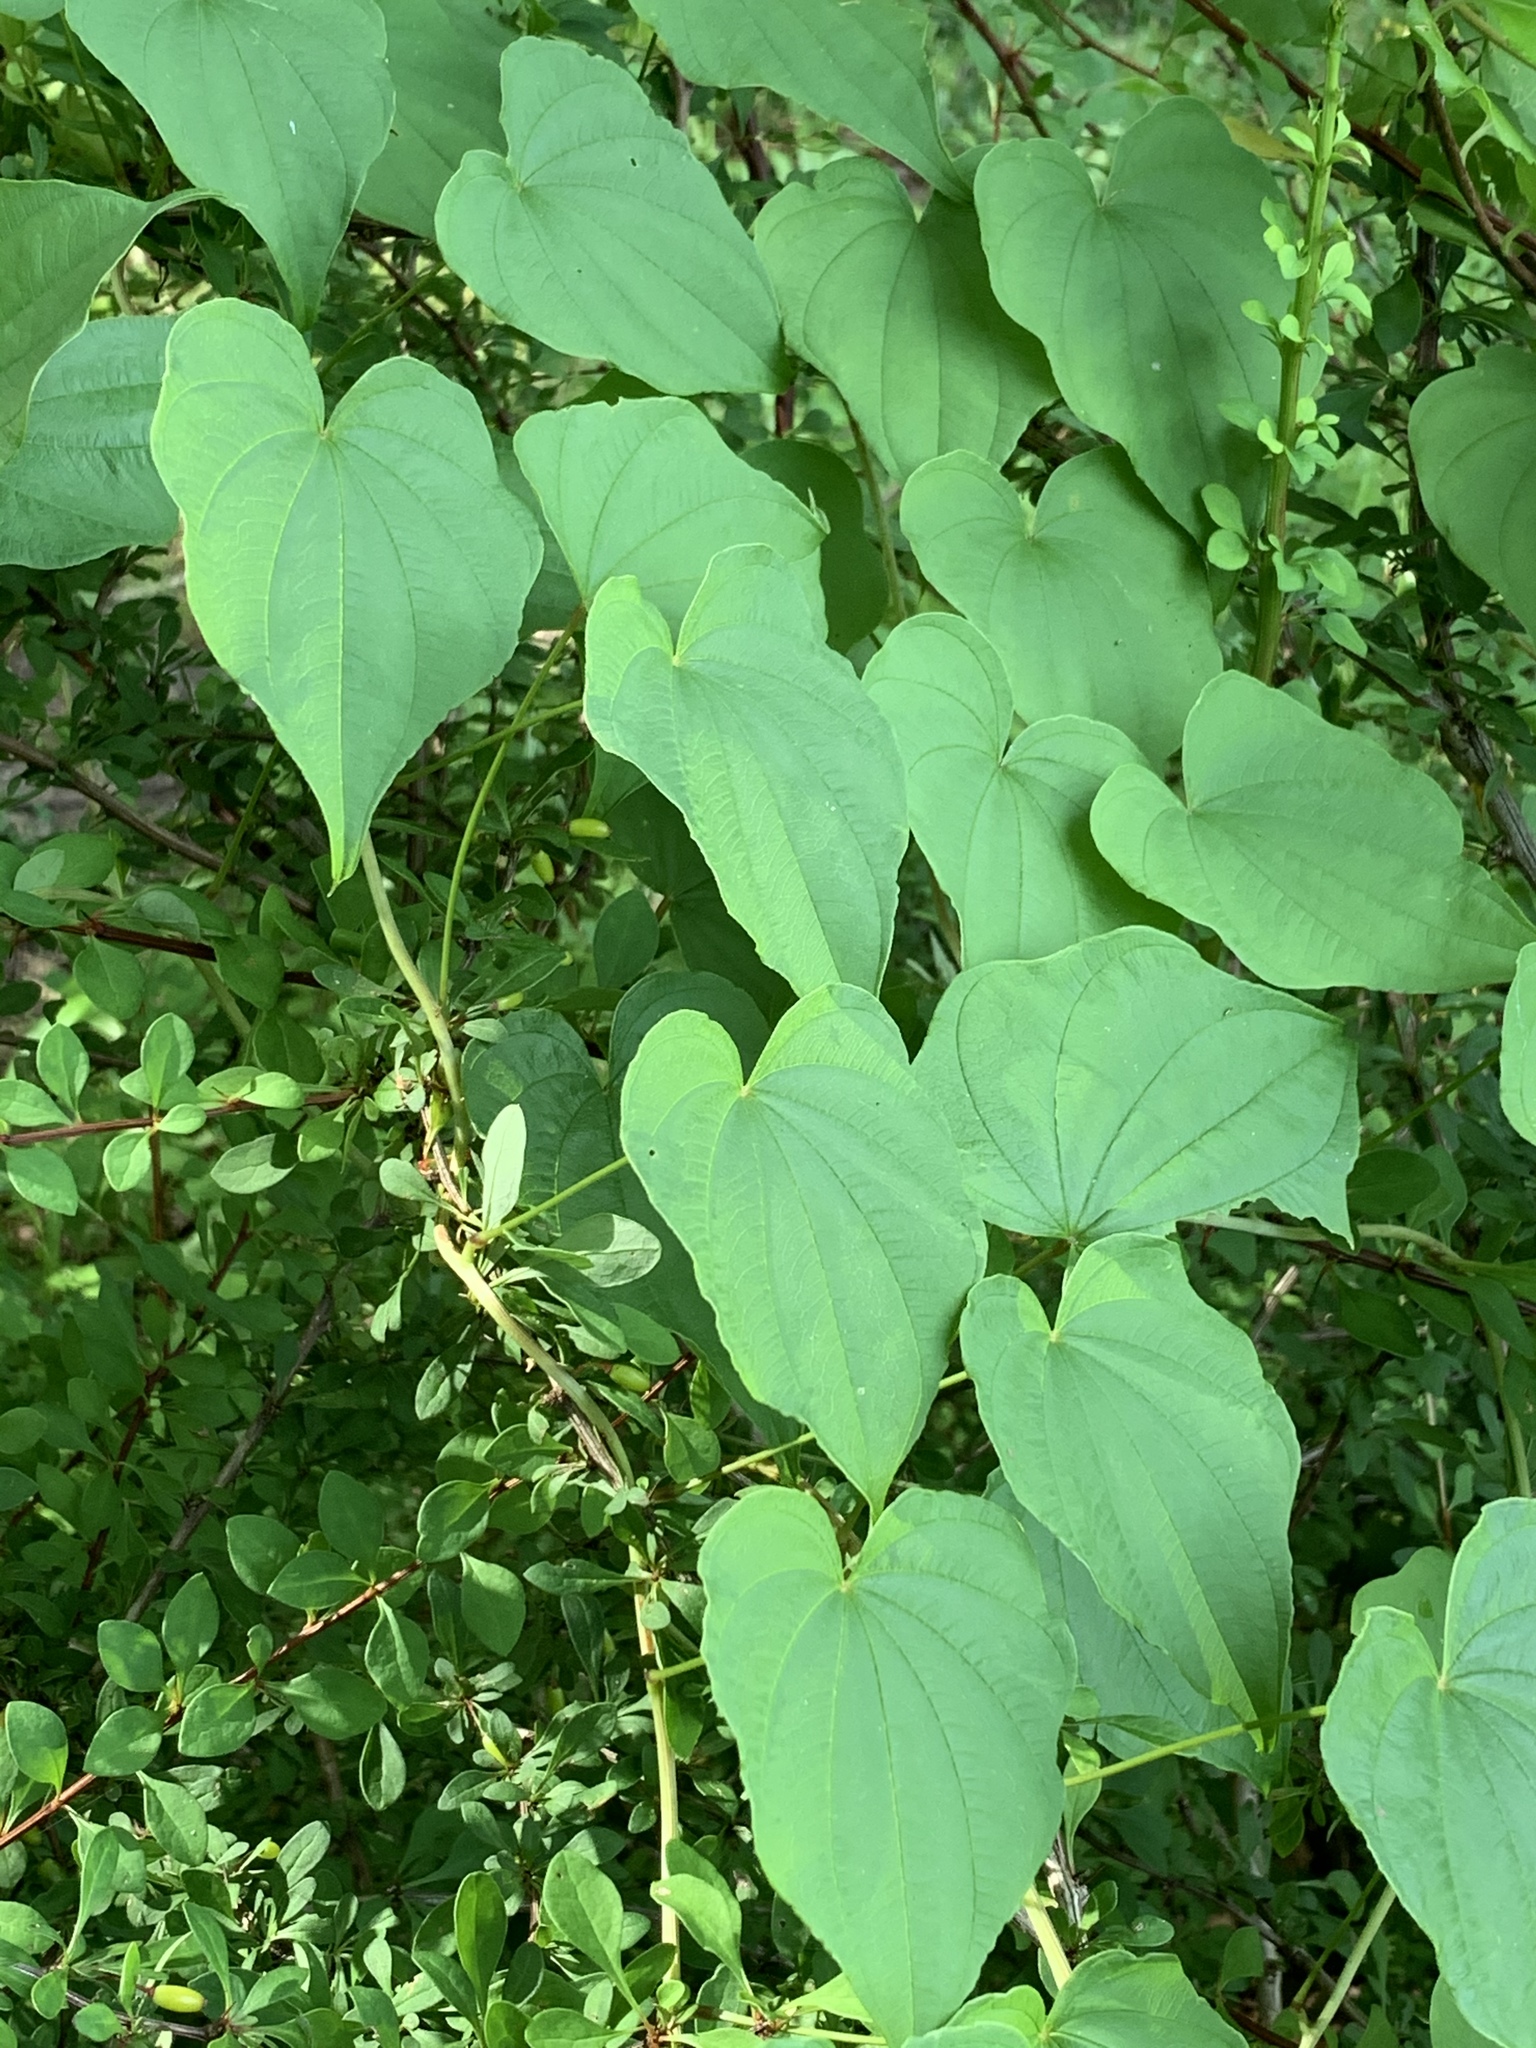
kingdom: Plantae
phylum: Tracheophyta
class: Liliopsida
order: Dioscoreales
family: Dioscoreaceae
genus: Dioscorea
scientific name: Dioscorea villosa
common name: Wild yam
